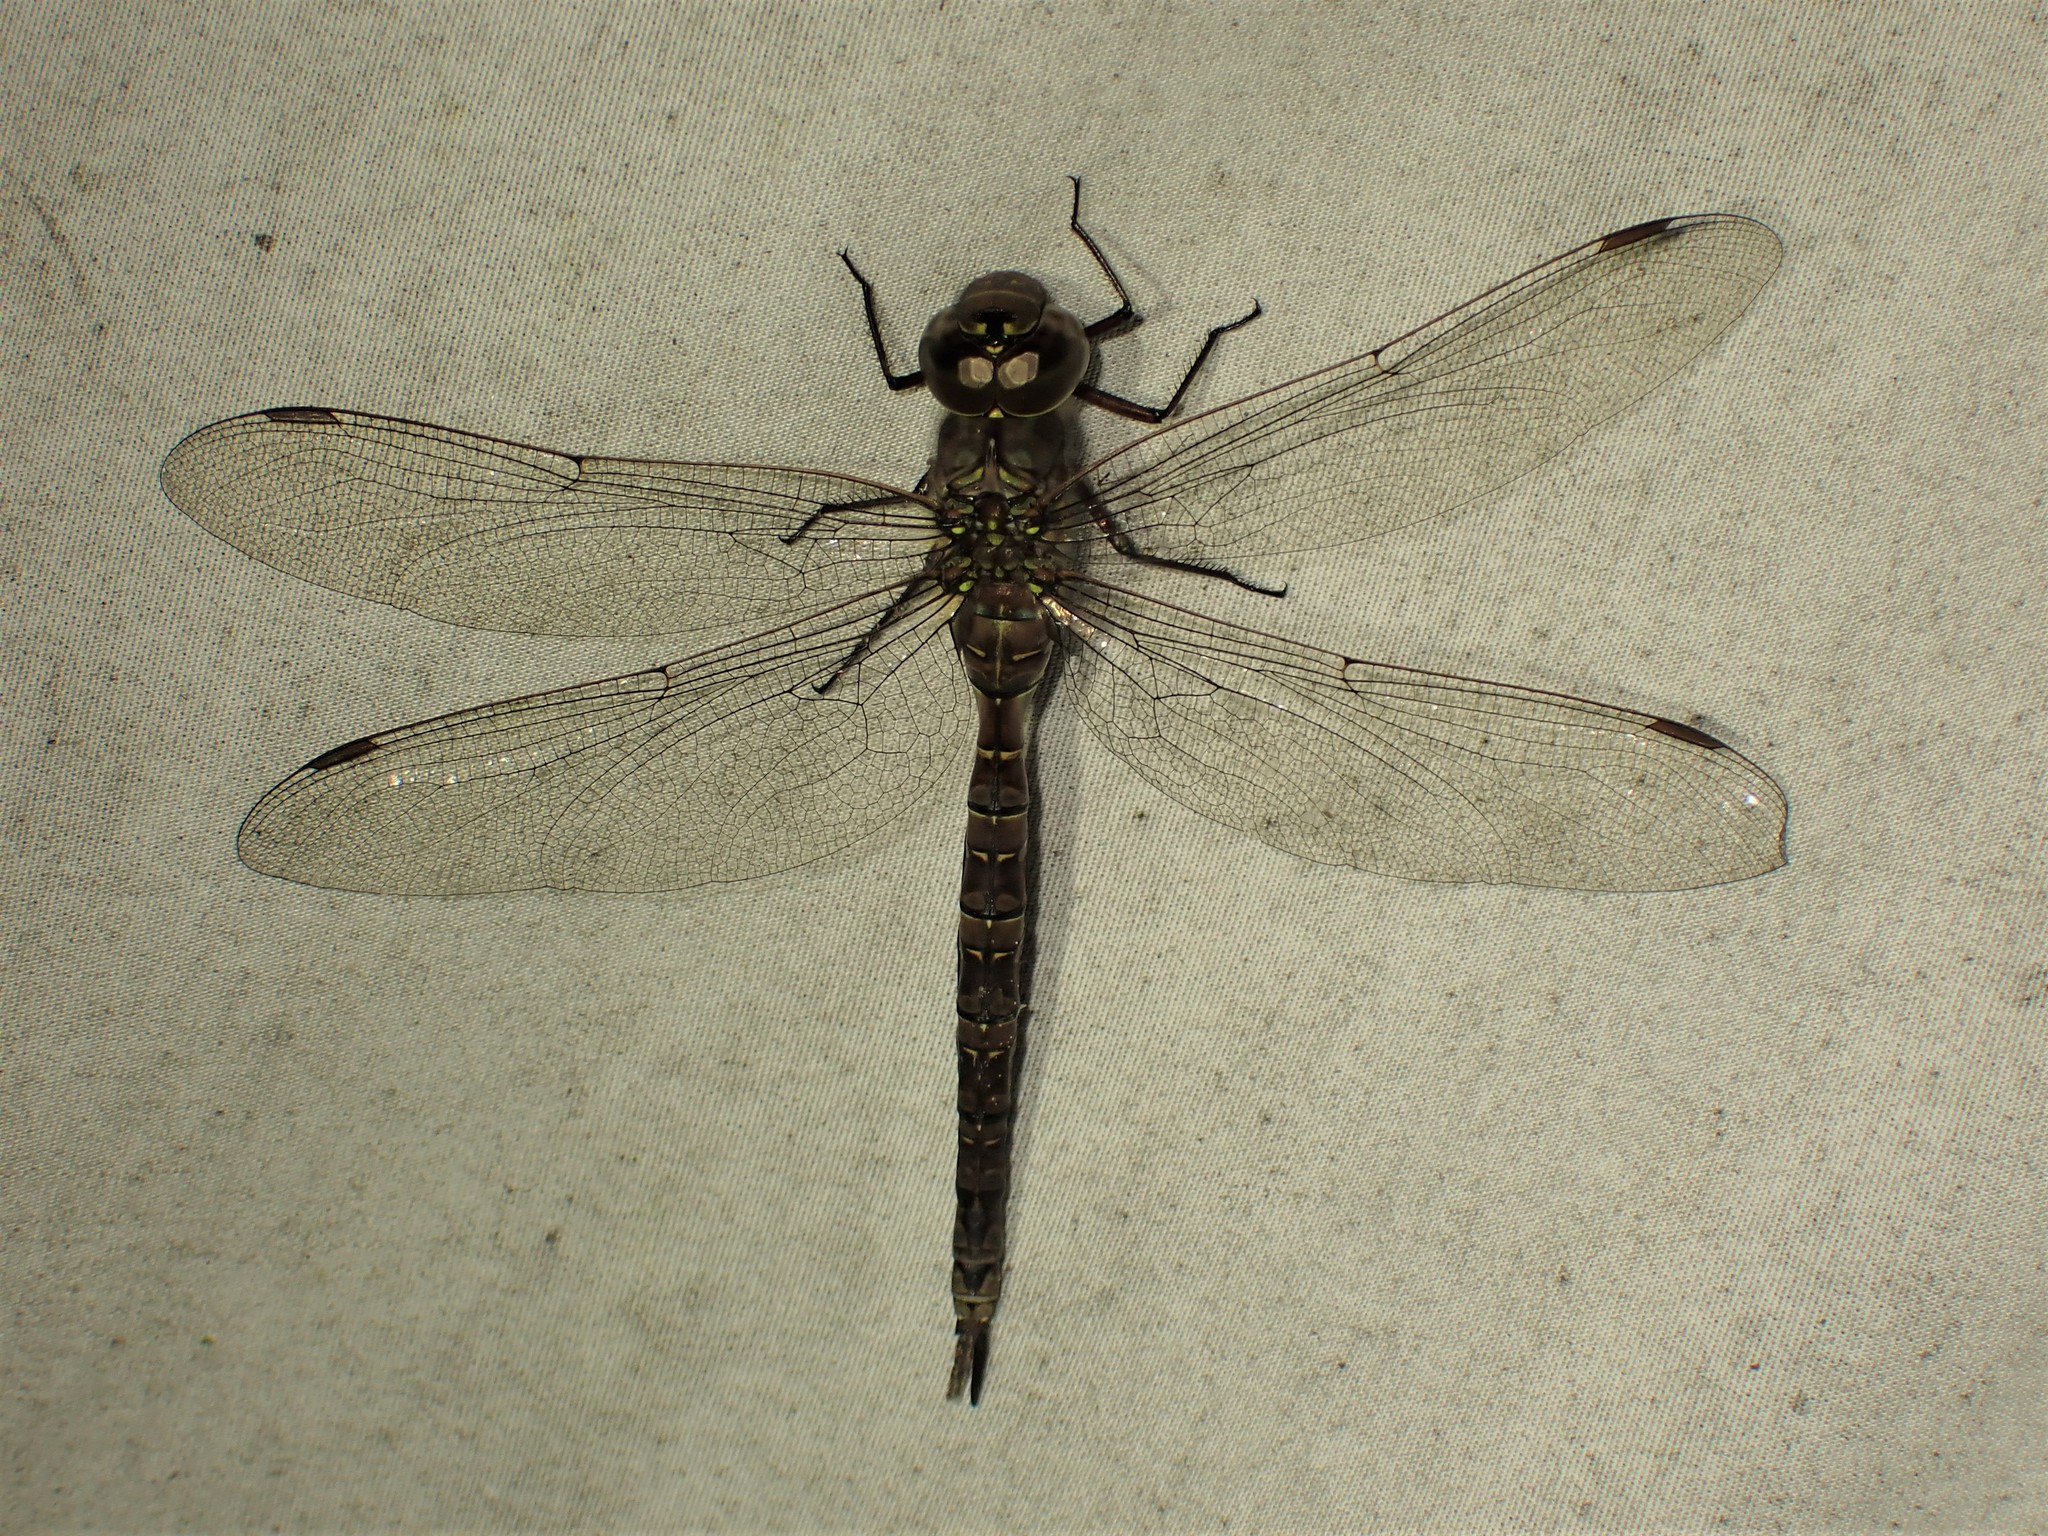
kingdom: Animalia
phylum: Arthropoda
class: Insecta
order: Odonata
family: Aeshnidae
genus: Aeshna
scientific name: Aeshna canadensis
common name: Canada darner
